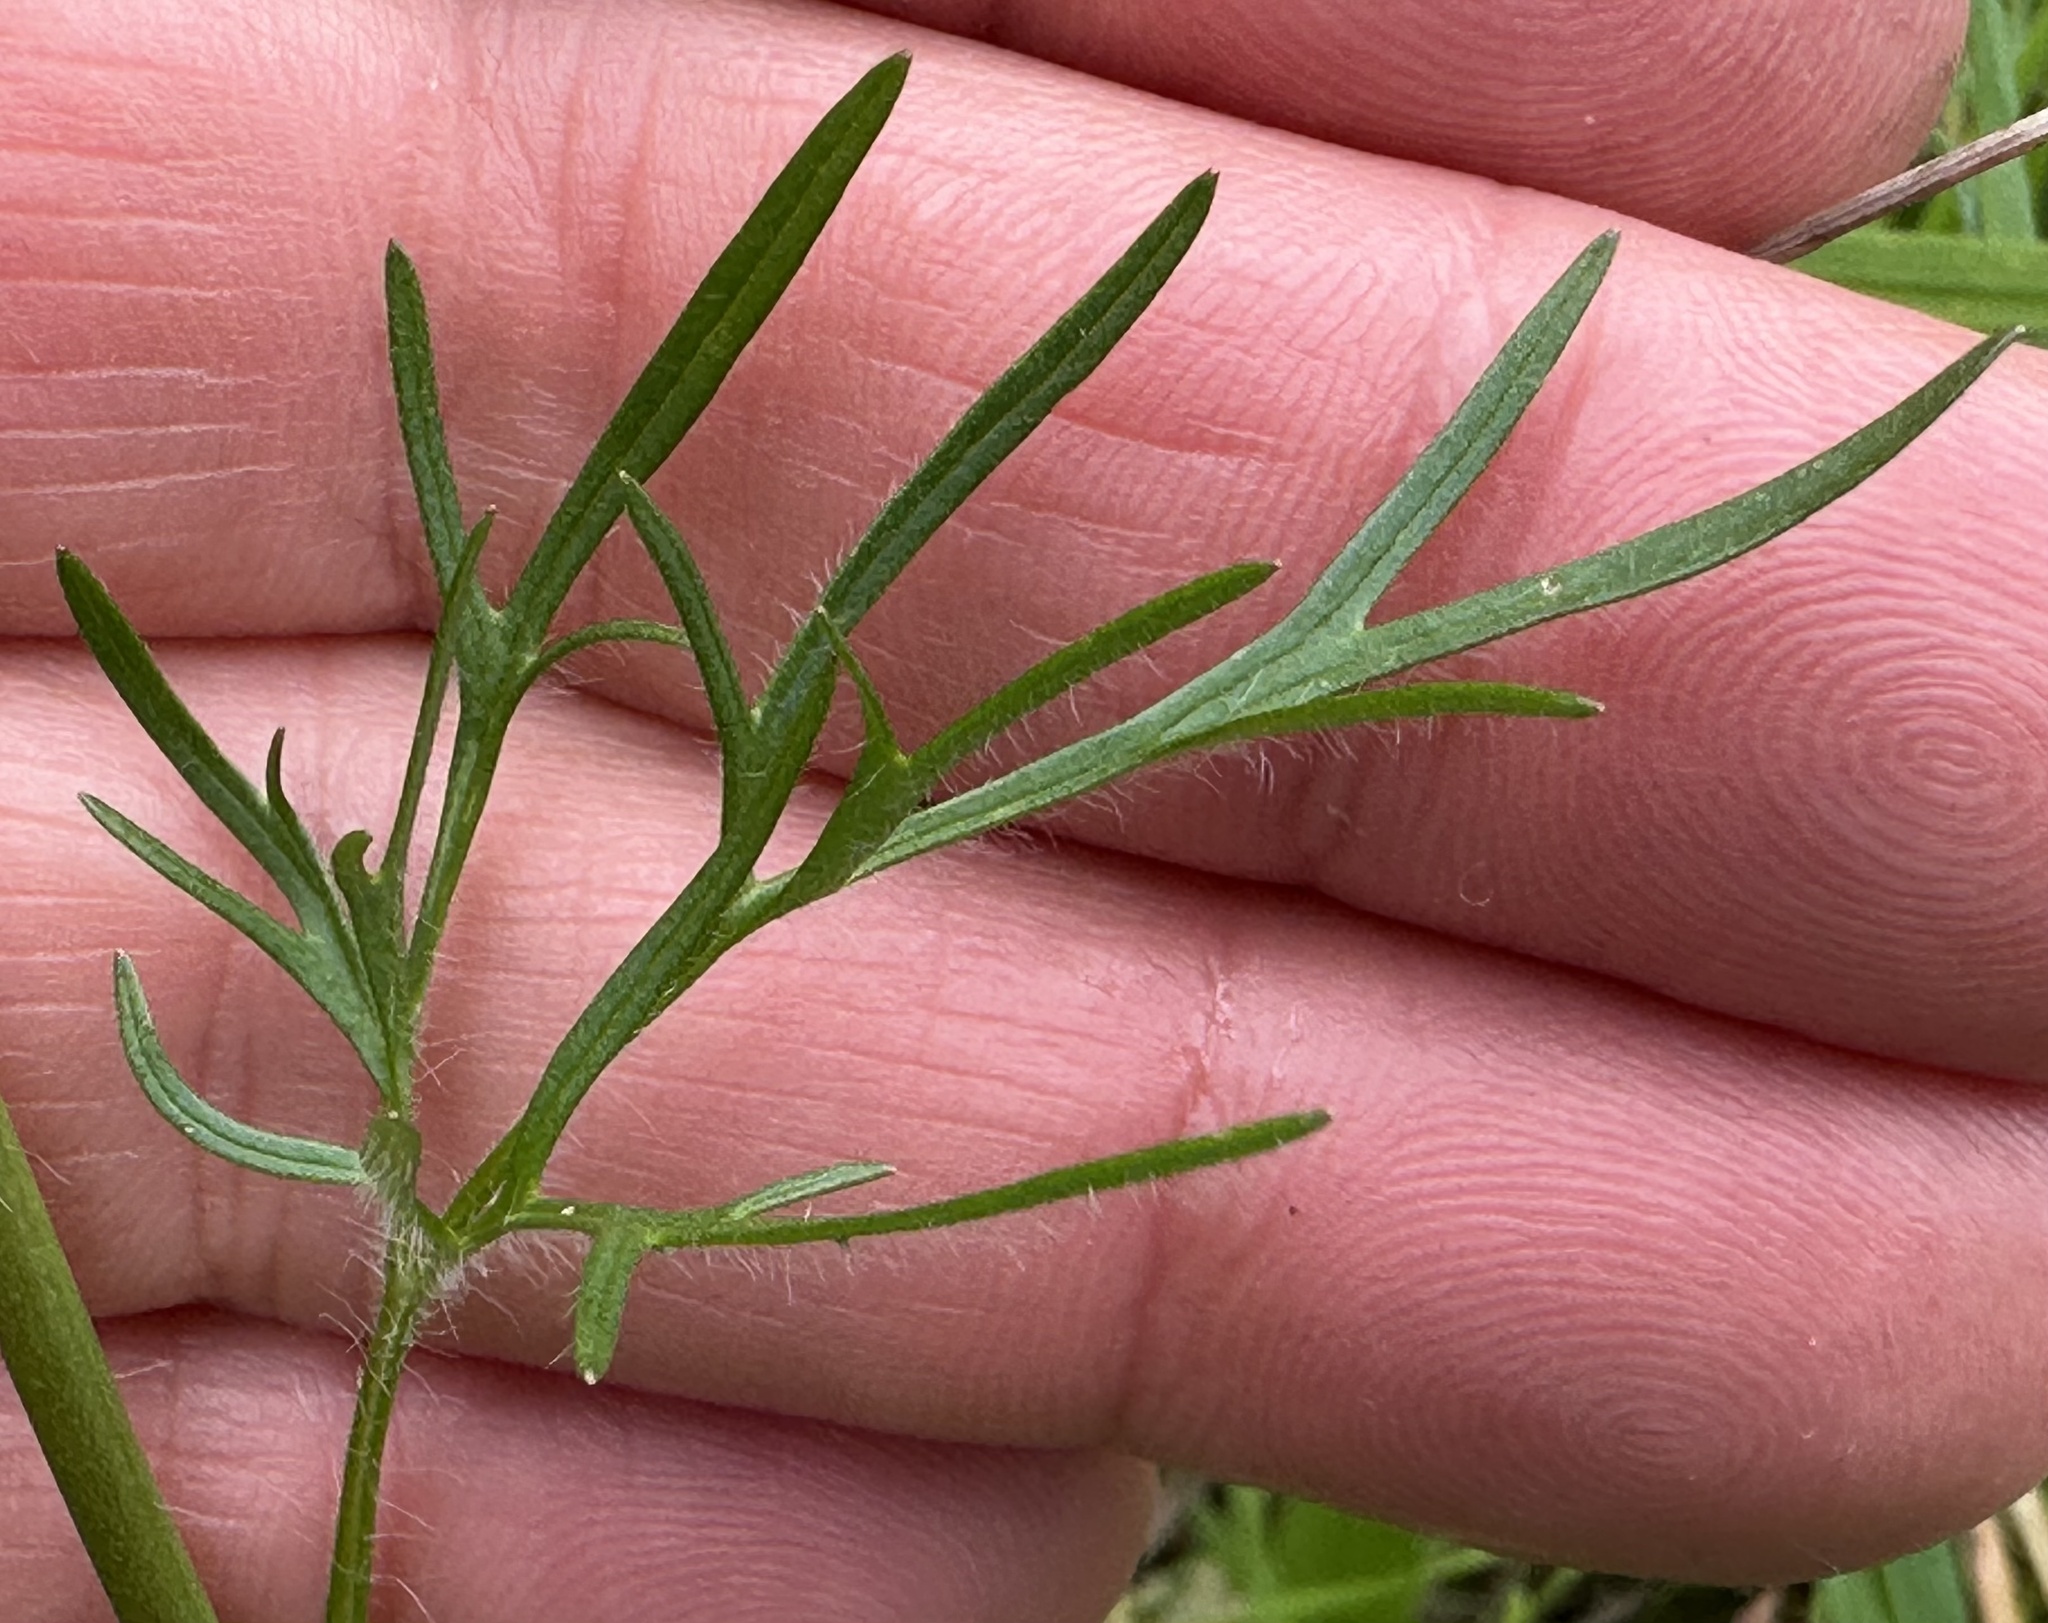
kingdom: Plantae
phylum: Tracheophyta
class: Magnoliopsida
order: Ranunculales
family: Ranunculaceae
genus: Ranunculus
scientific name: Ranunculus californicus
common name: California buttercup
